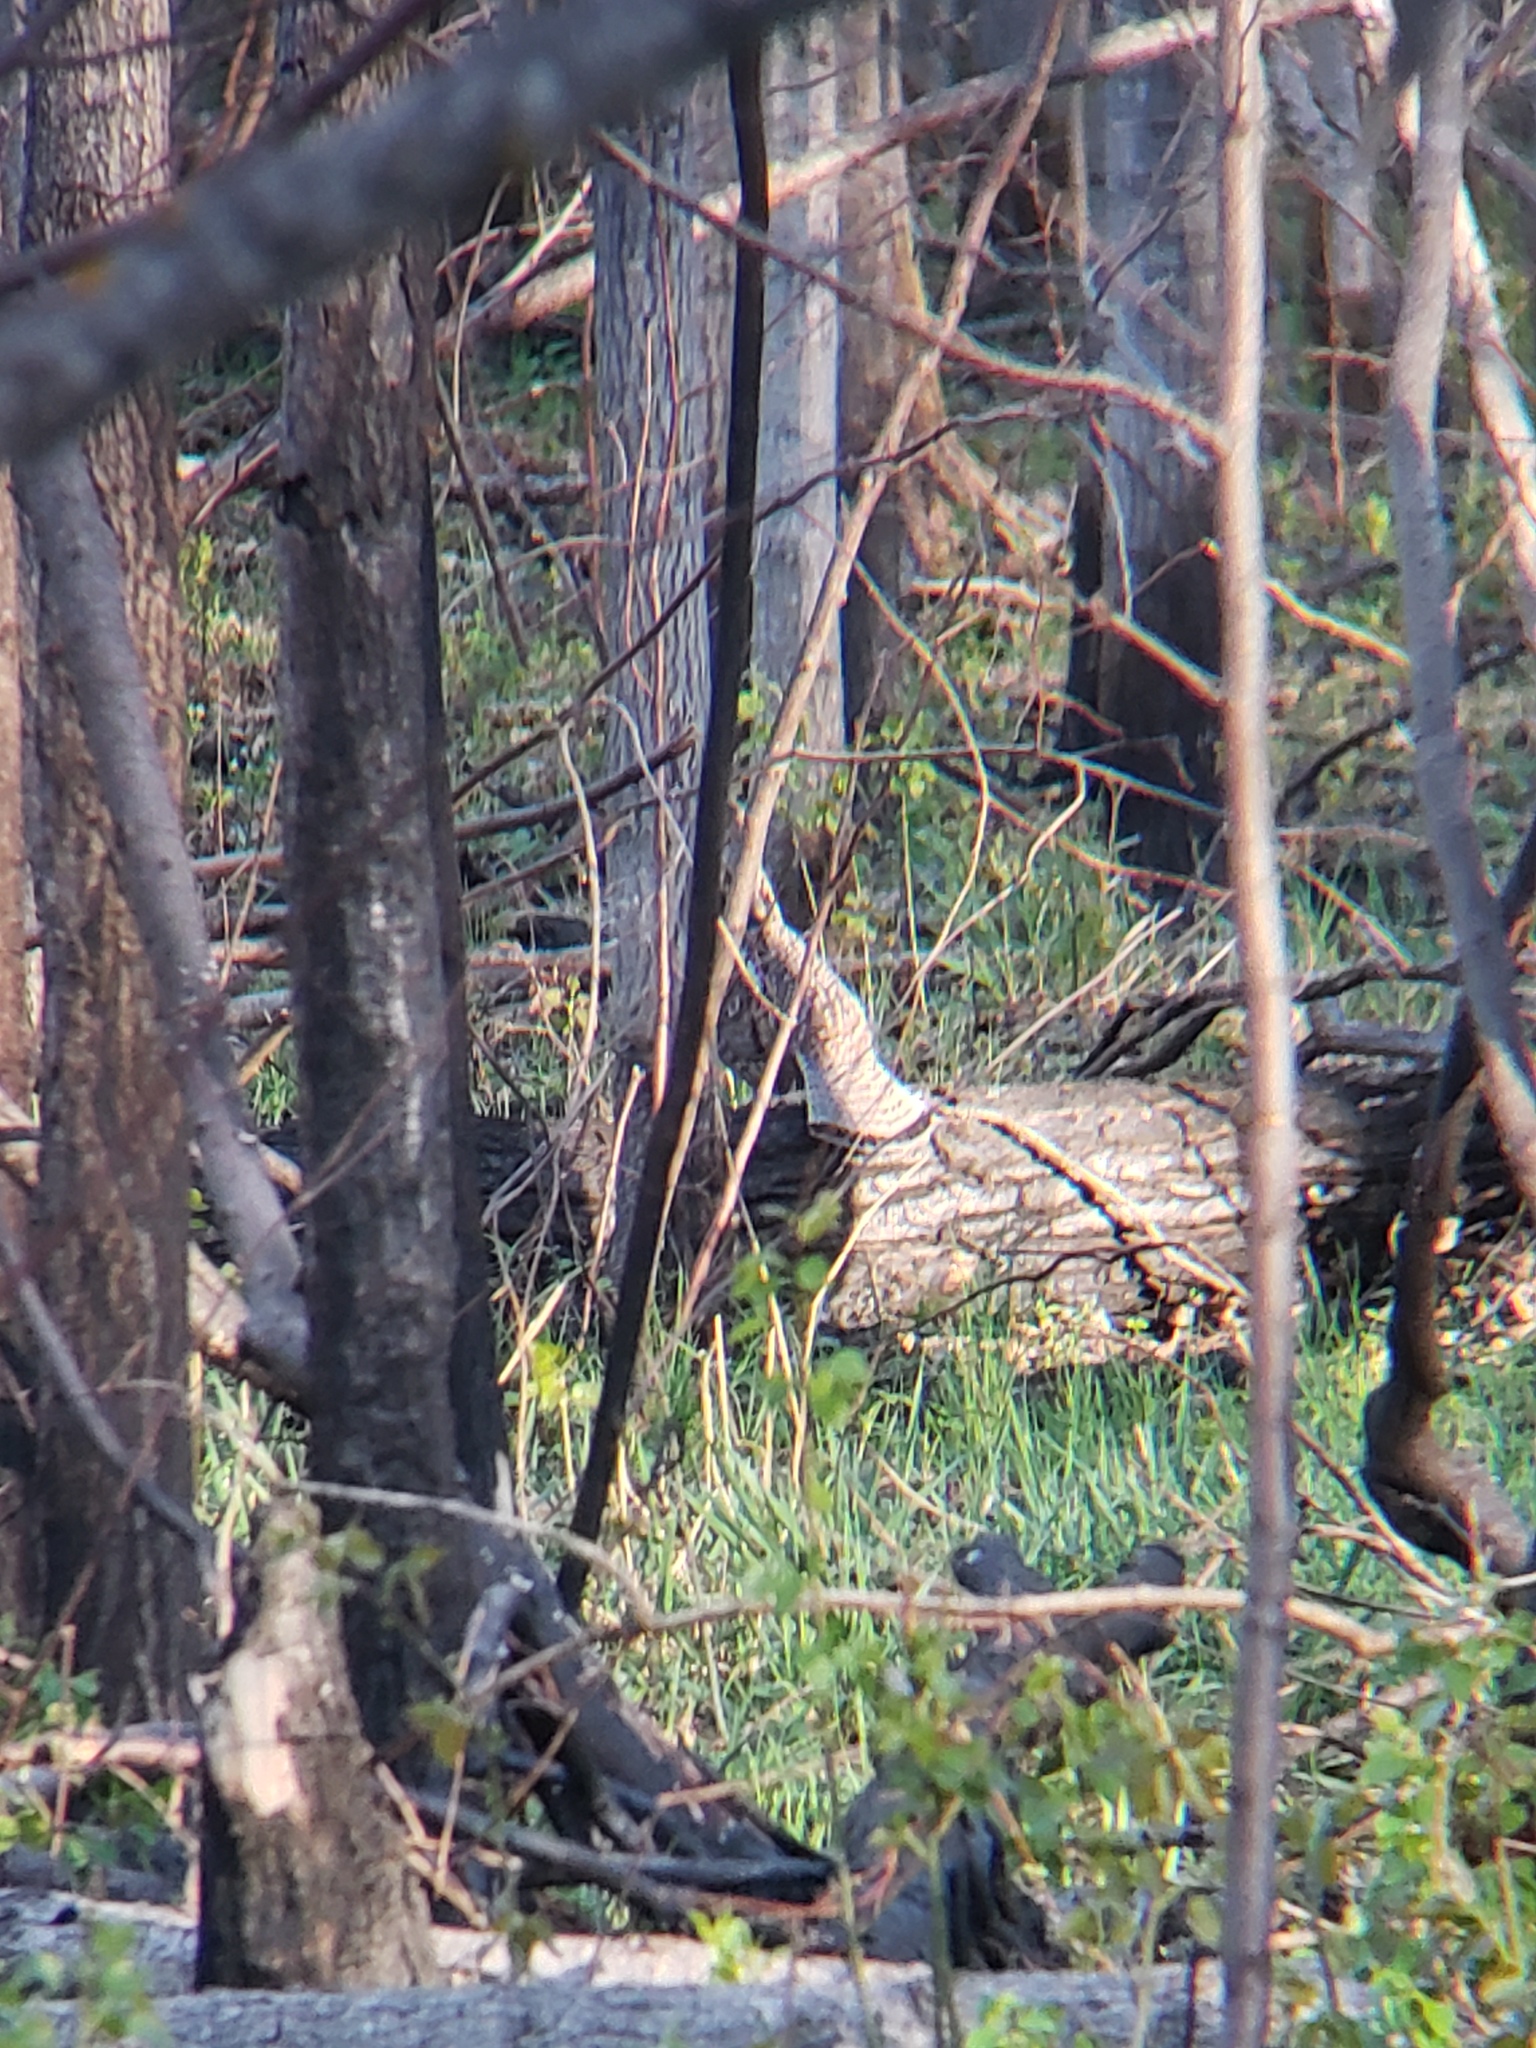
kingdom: Animalia
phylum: Chordata
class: Aves
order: Galliformes
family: Phasianidae
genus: Bonasa
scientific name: Bonasa umbellus
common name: Ruffed grouse
